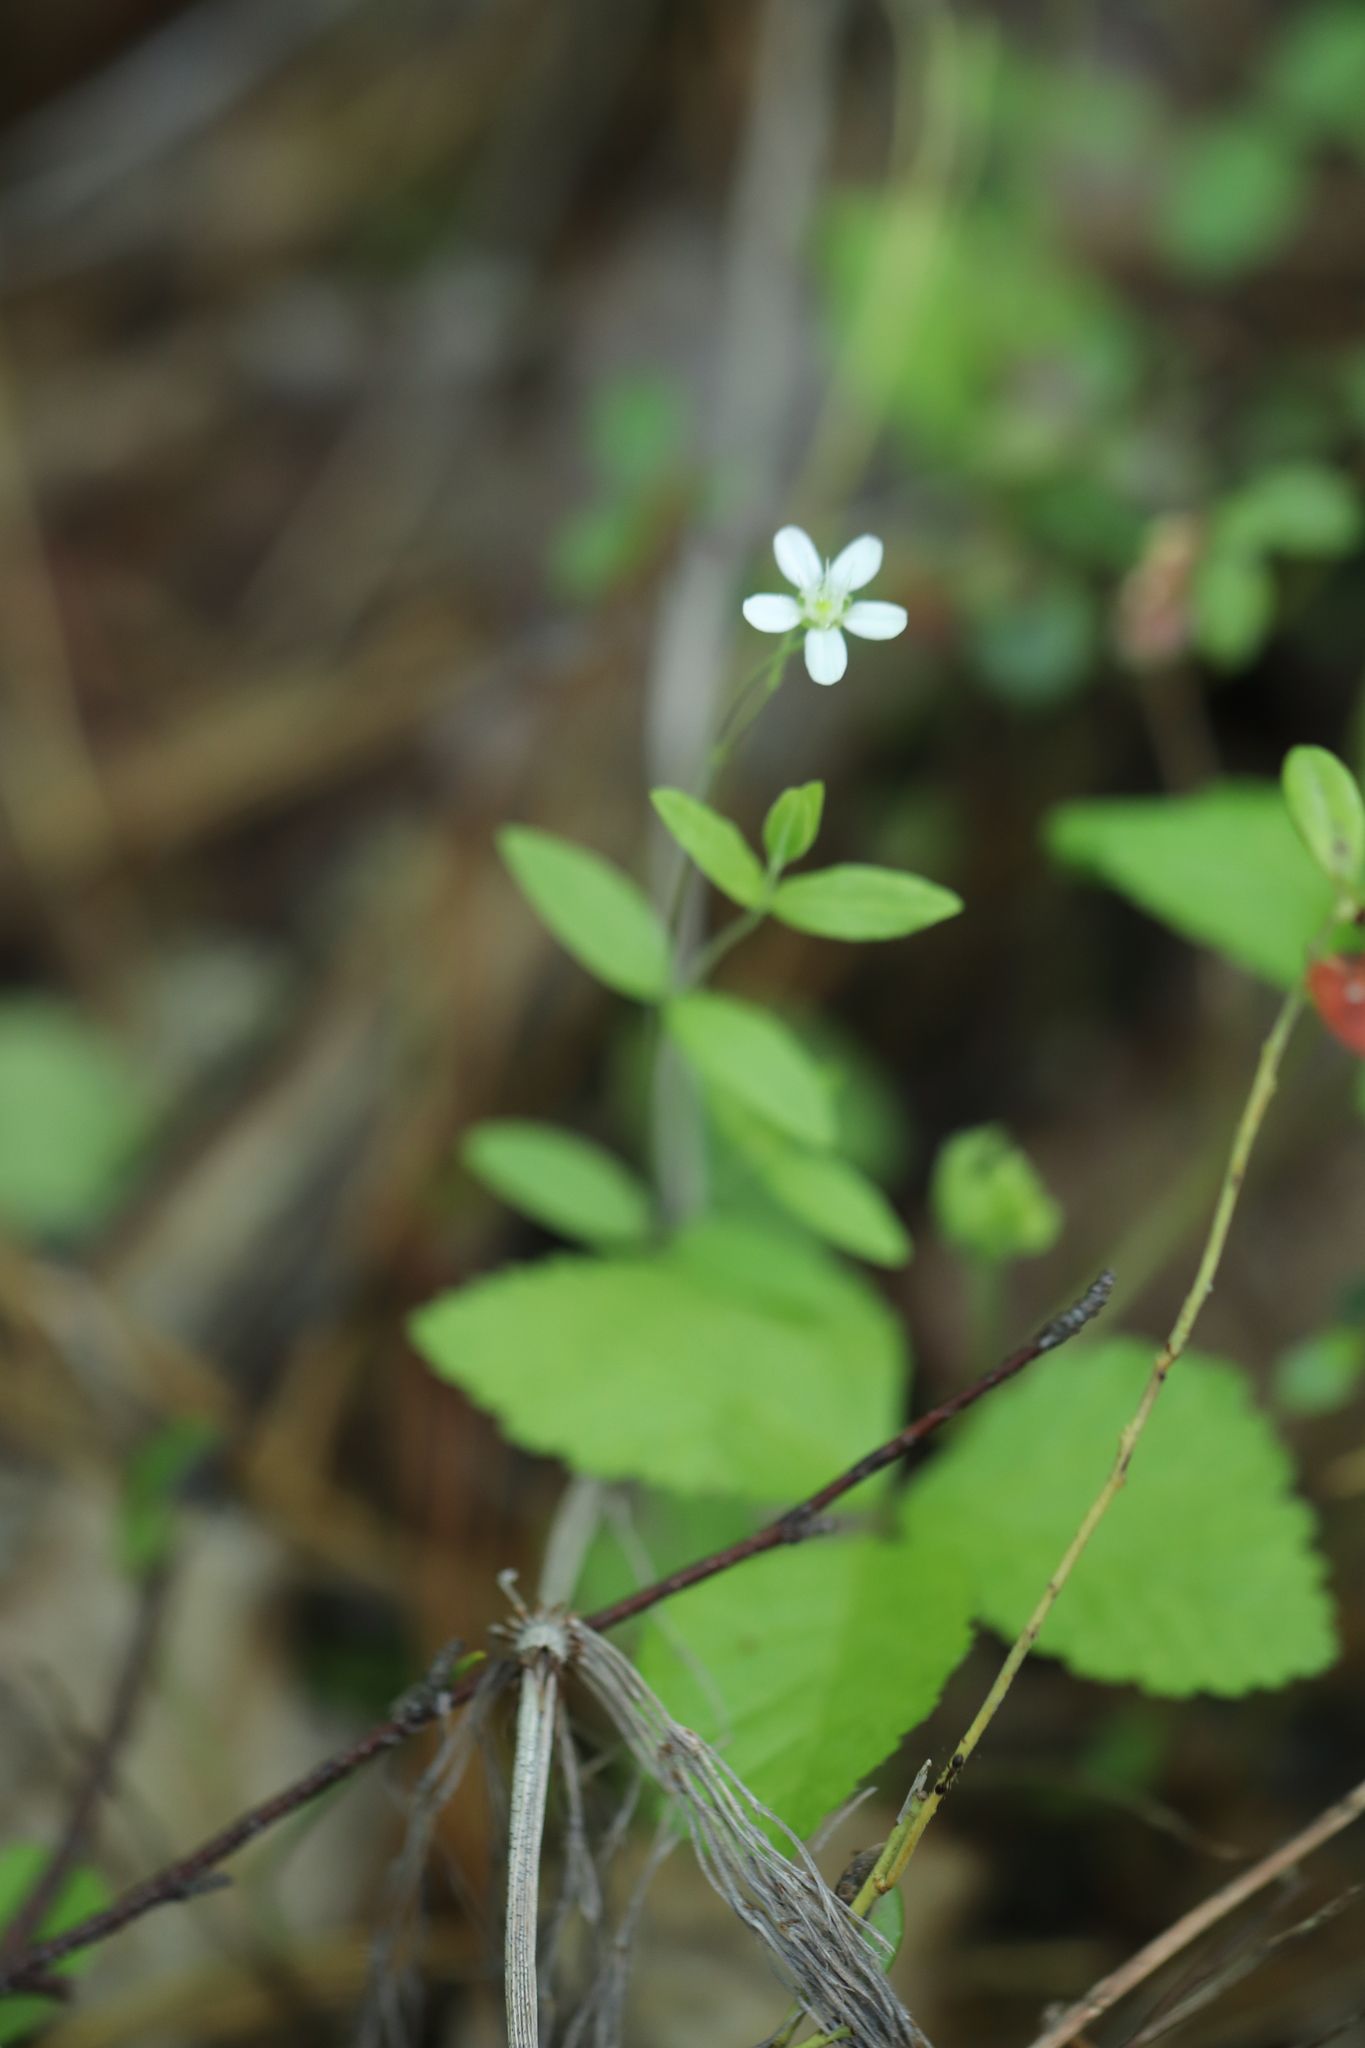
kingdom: Plantae
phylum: Tracheophyta
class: Magnoliopsida
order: Caryophyllales
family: Caryophyllaceae
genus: Moehringia
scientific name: Moehringia lateriflora
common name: Blunt-leaved sandwort
